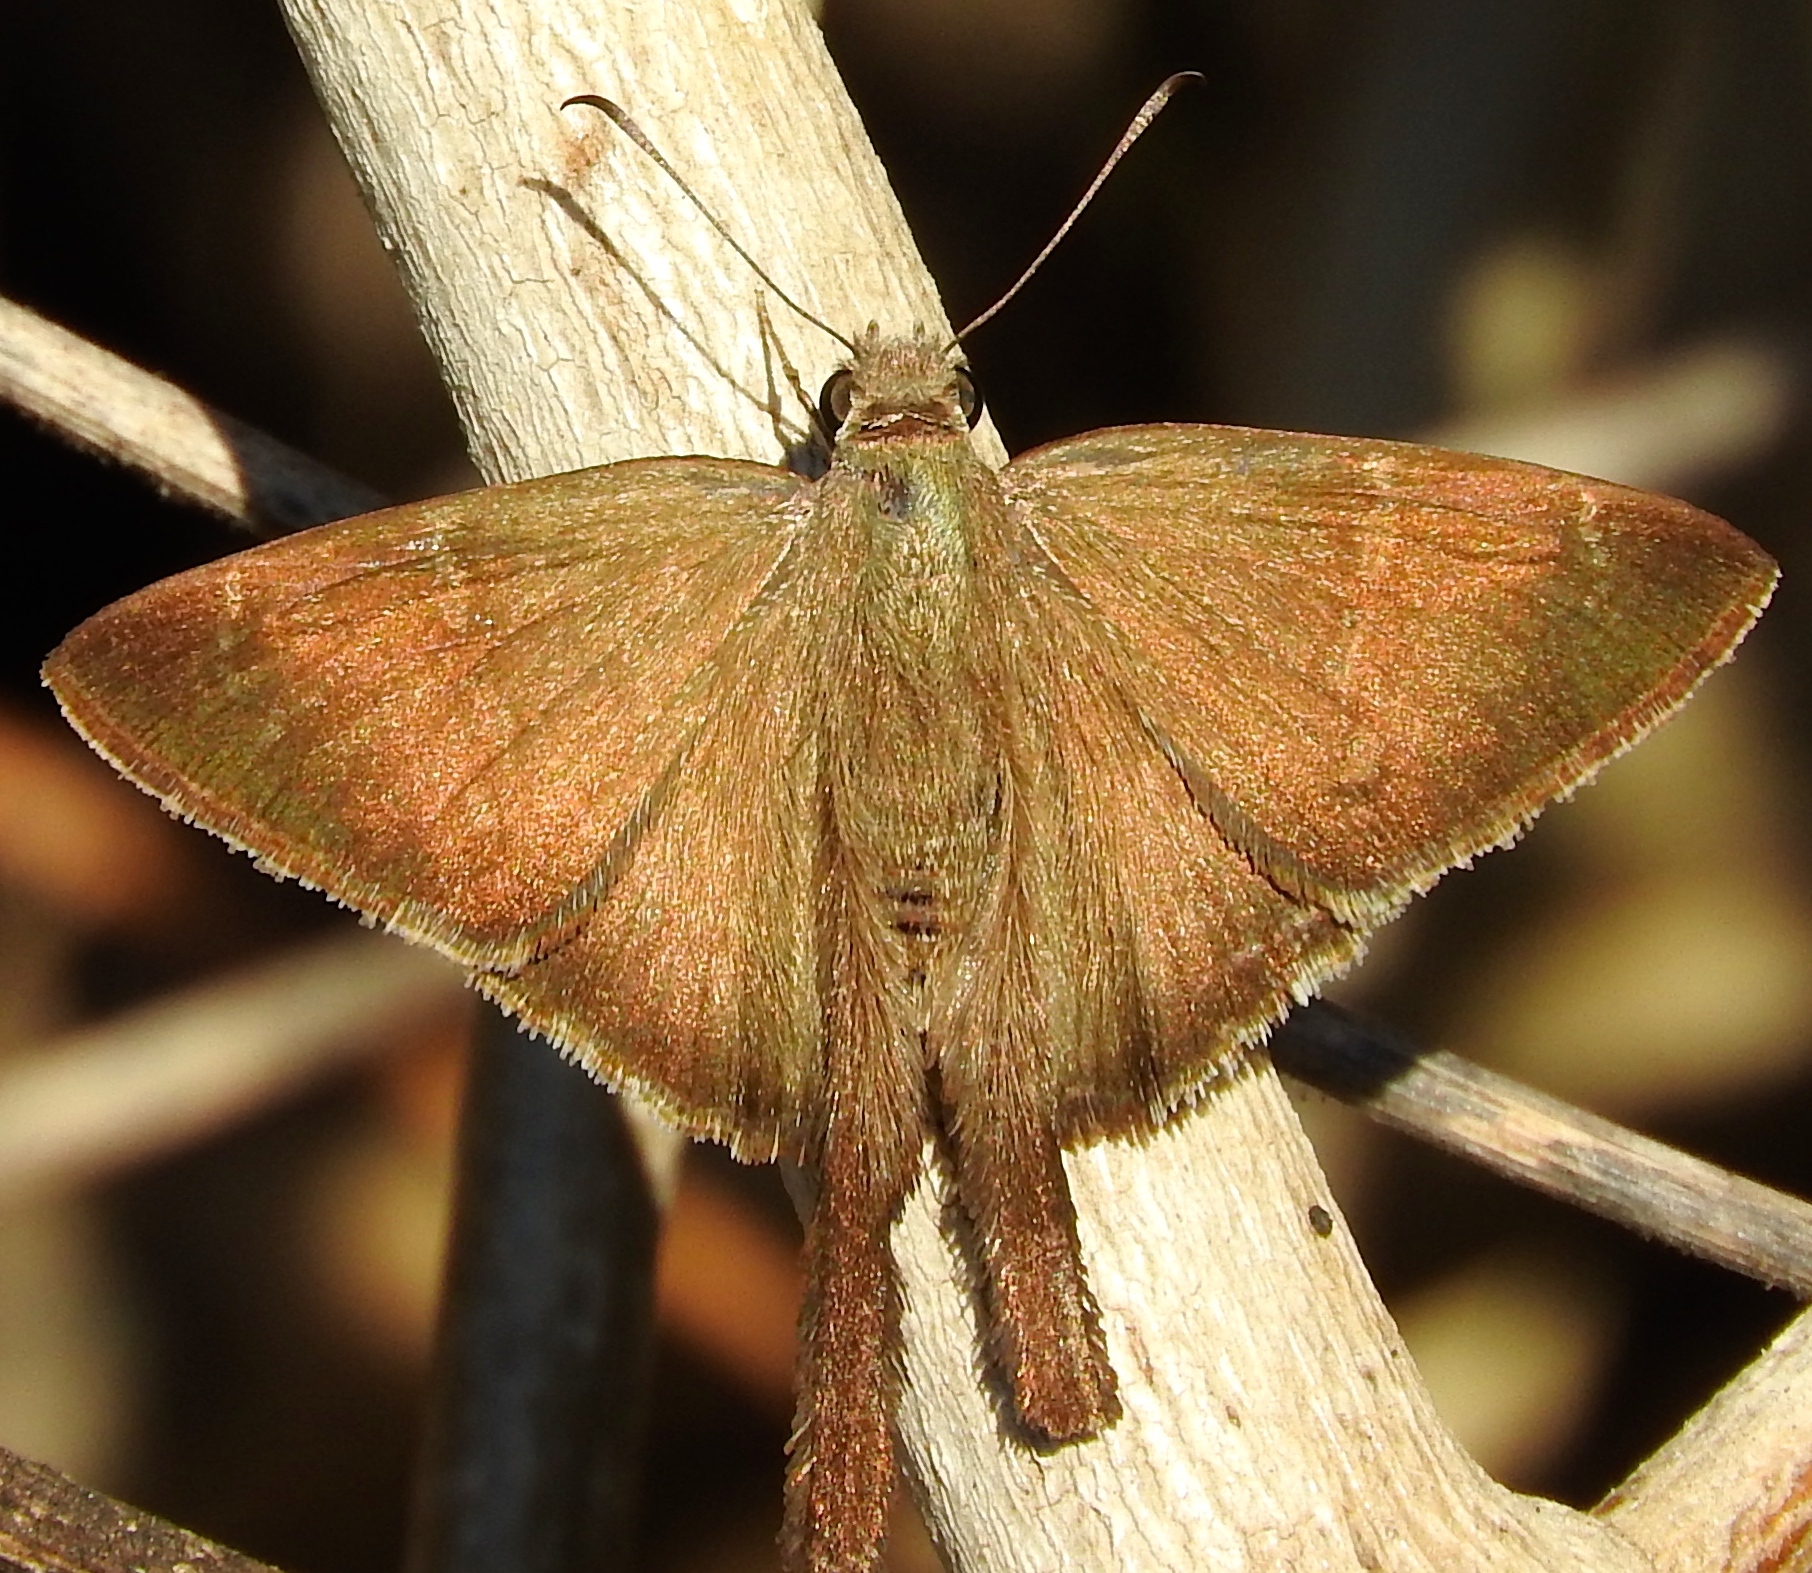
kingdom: Animalia
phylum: Arthropoda
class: Insecta
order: Lepidoptera
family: Hesperiidae
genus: Urbanus
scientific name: Urbanus simplicius
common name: Plain longtail
